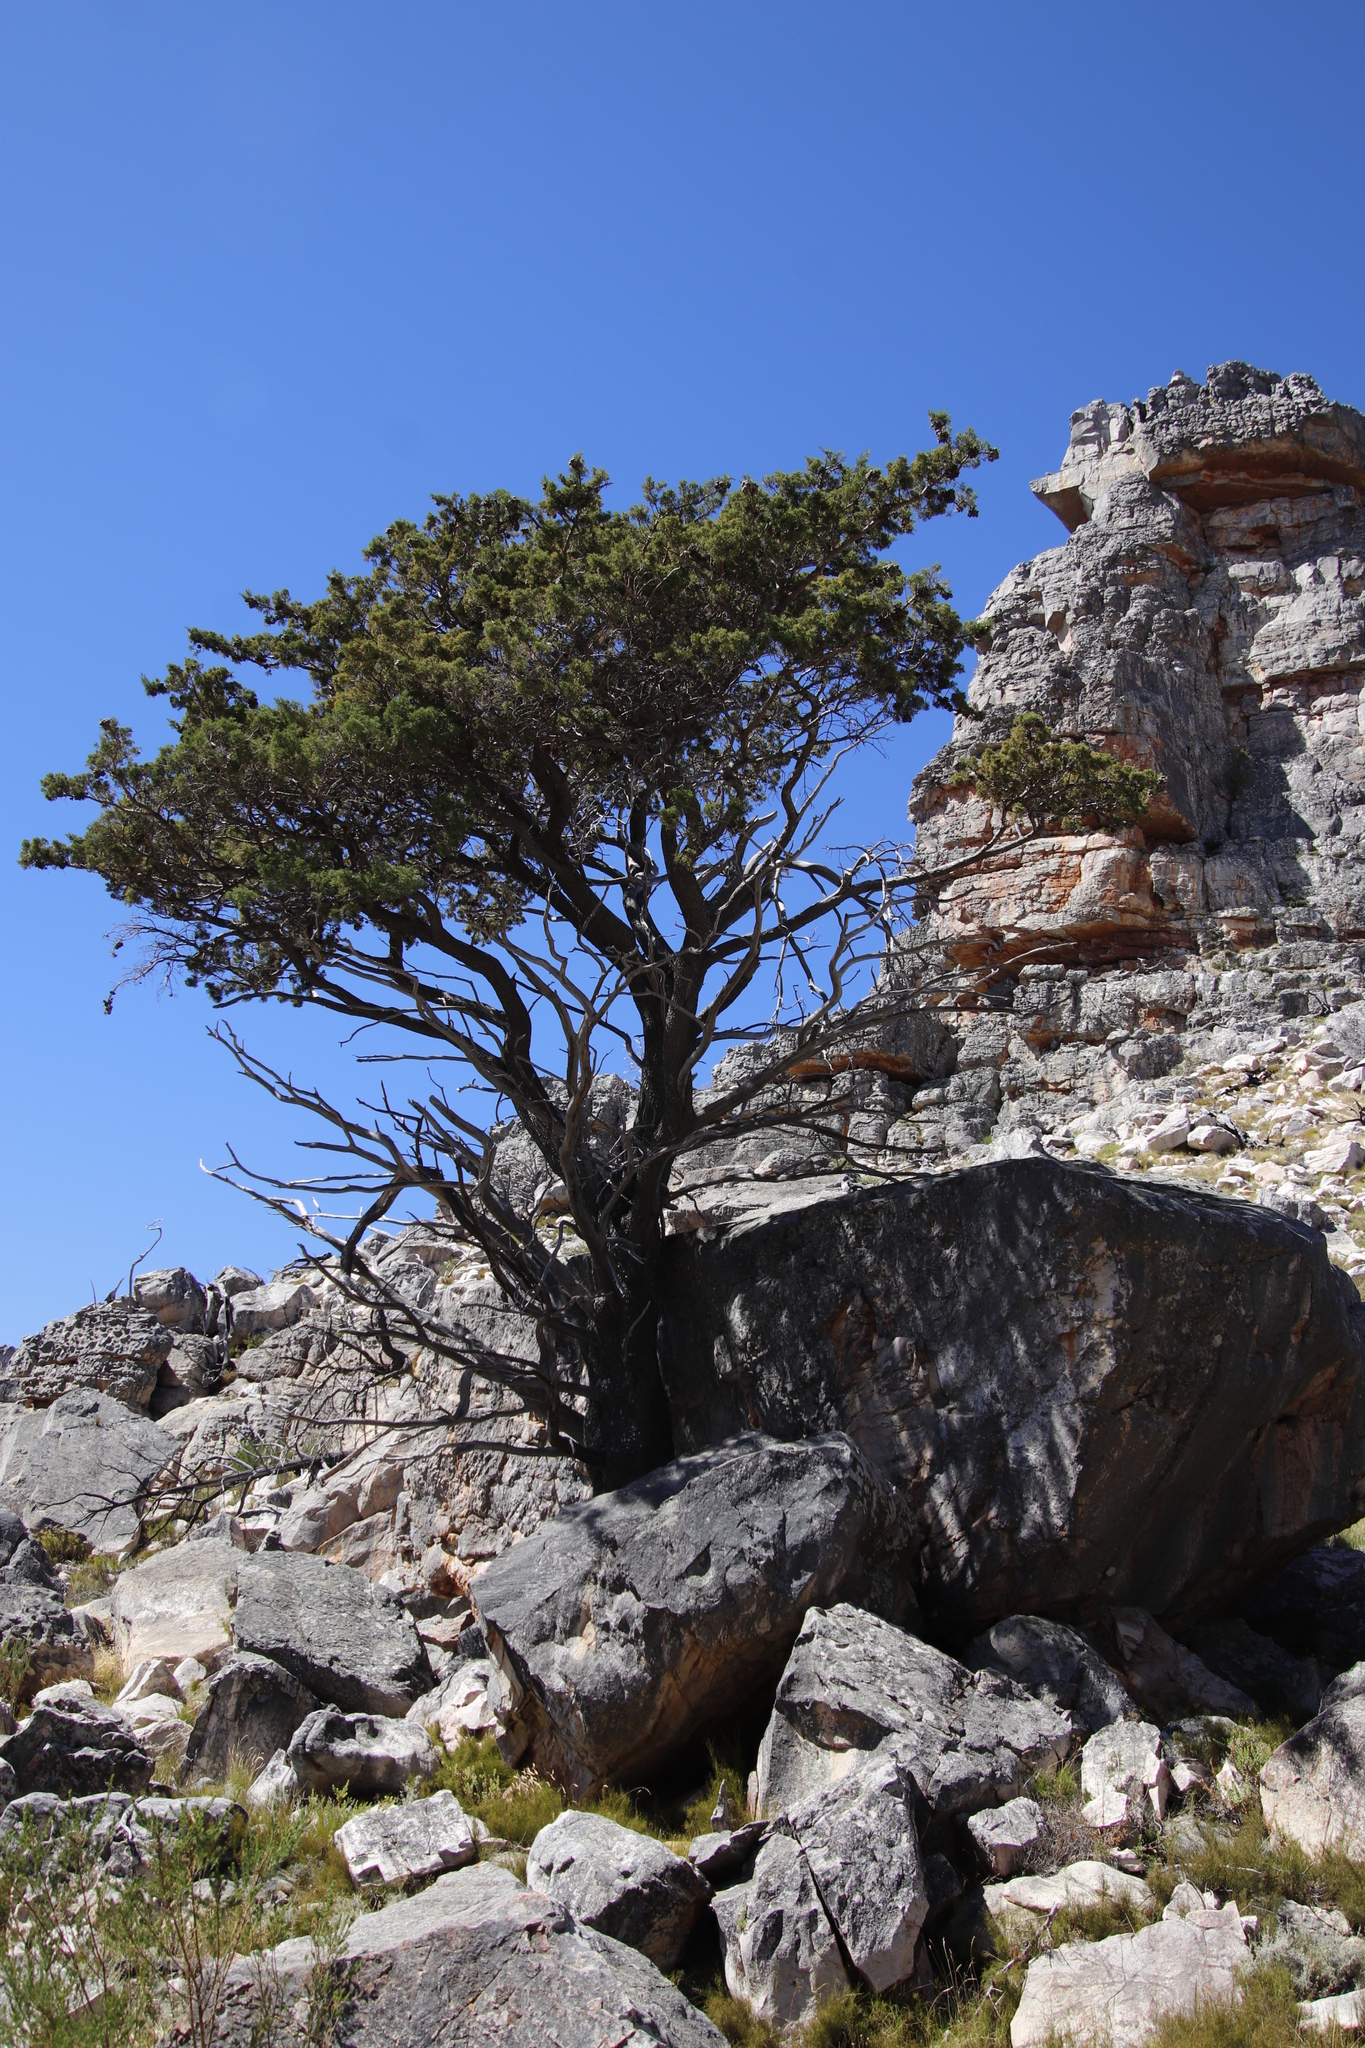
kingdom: Plantae
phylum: Tracheophyta
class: Pinopsida
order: Pinales
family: Cupressaceae
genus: Widdringtonia
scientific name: Widdringtonia nodiflora
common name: Cape cypress
